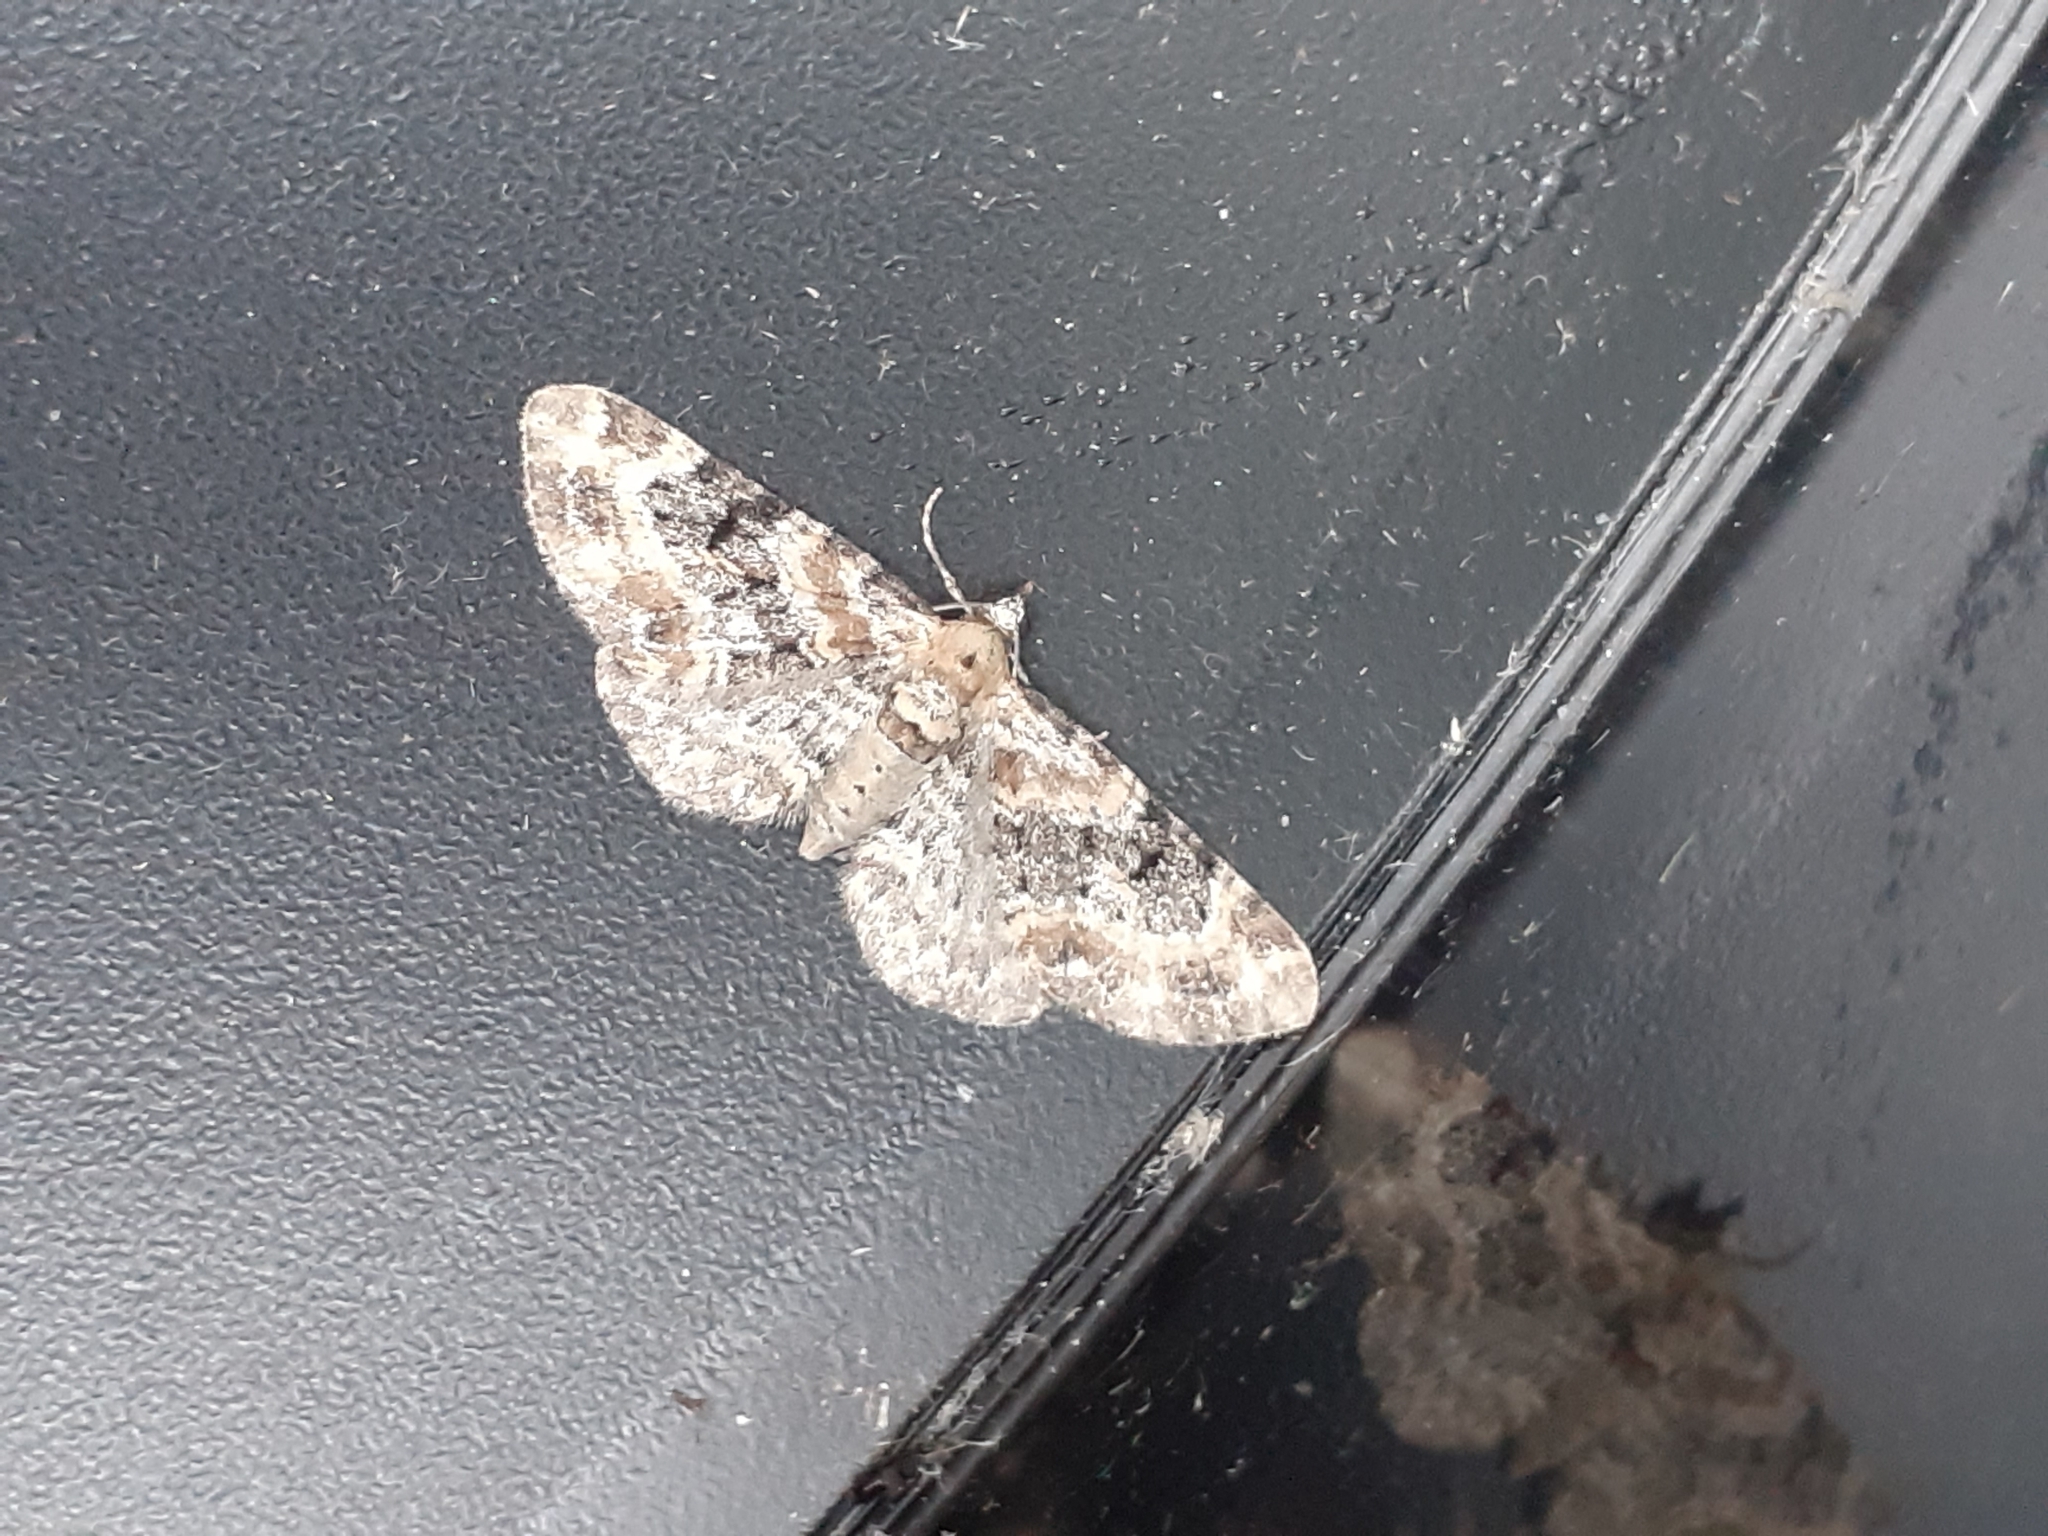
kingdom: Animalia
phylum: Arthropoda
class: Insecta
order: Lepidoptera
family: Geometridae
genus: Eupithecia
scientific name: Eupithecia pulchellata
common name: Foxglove pug
